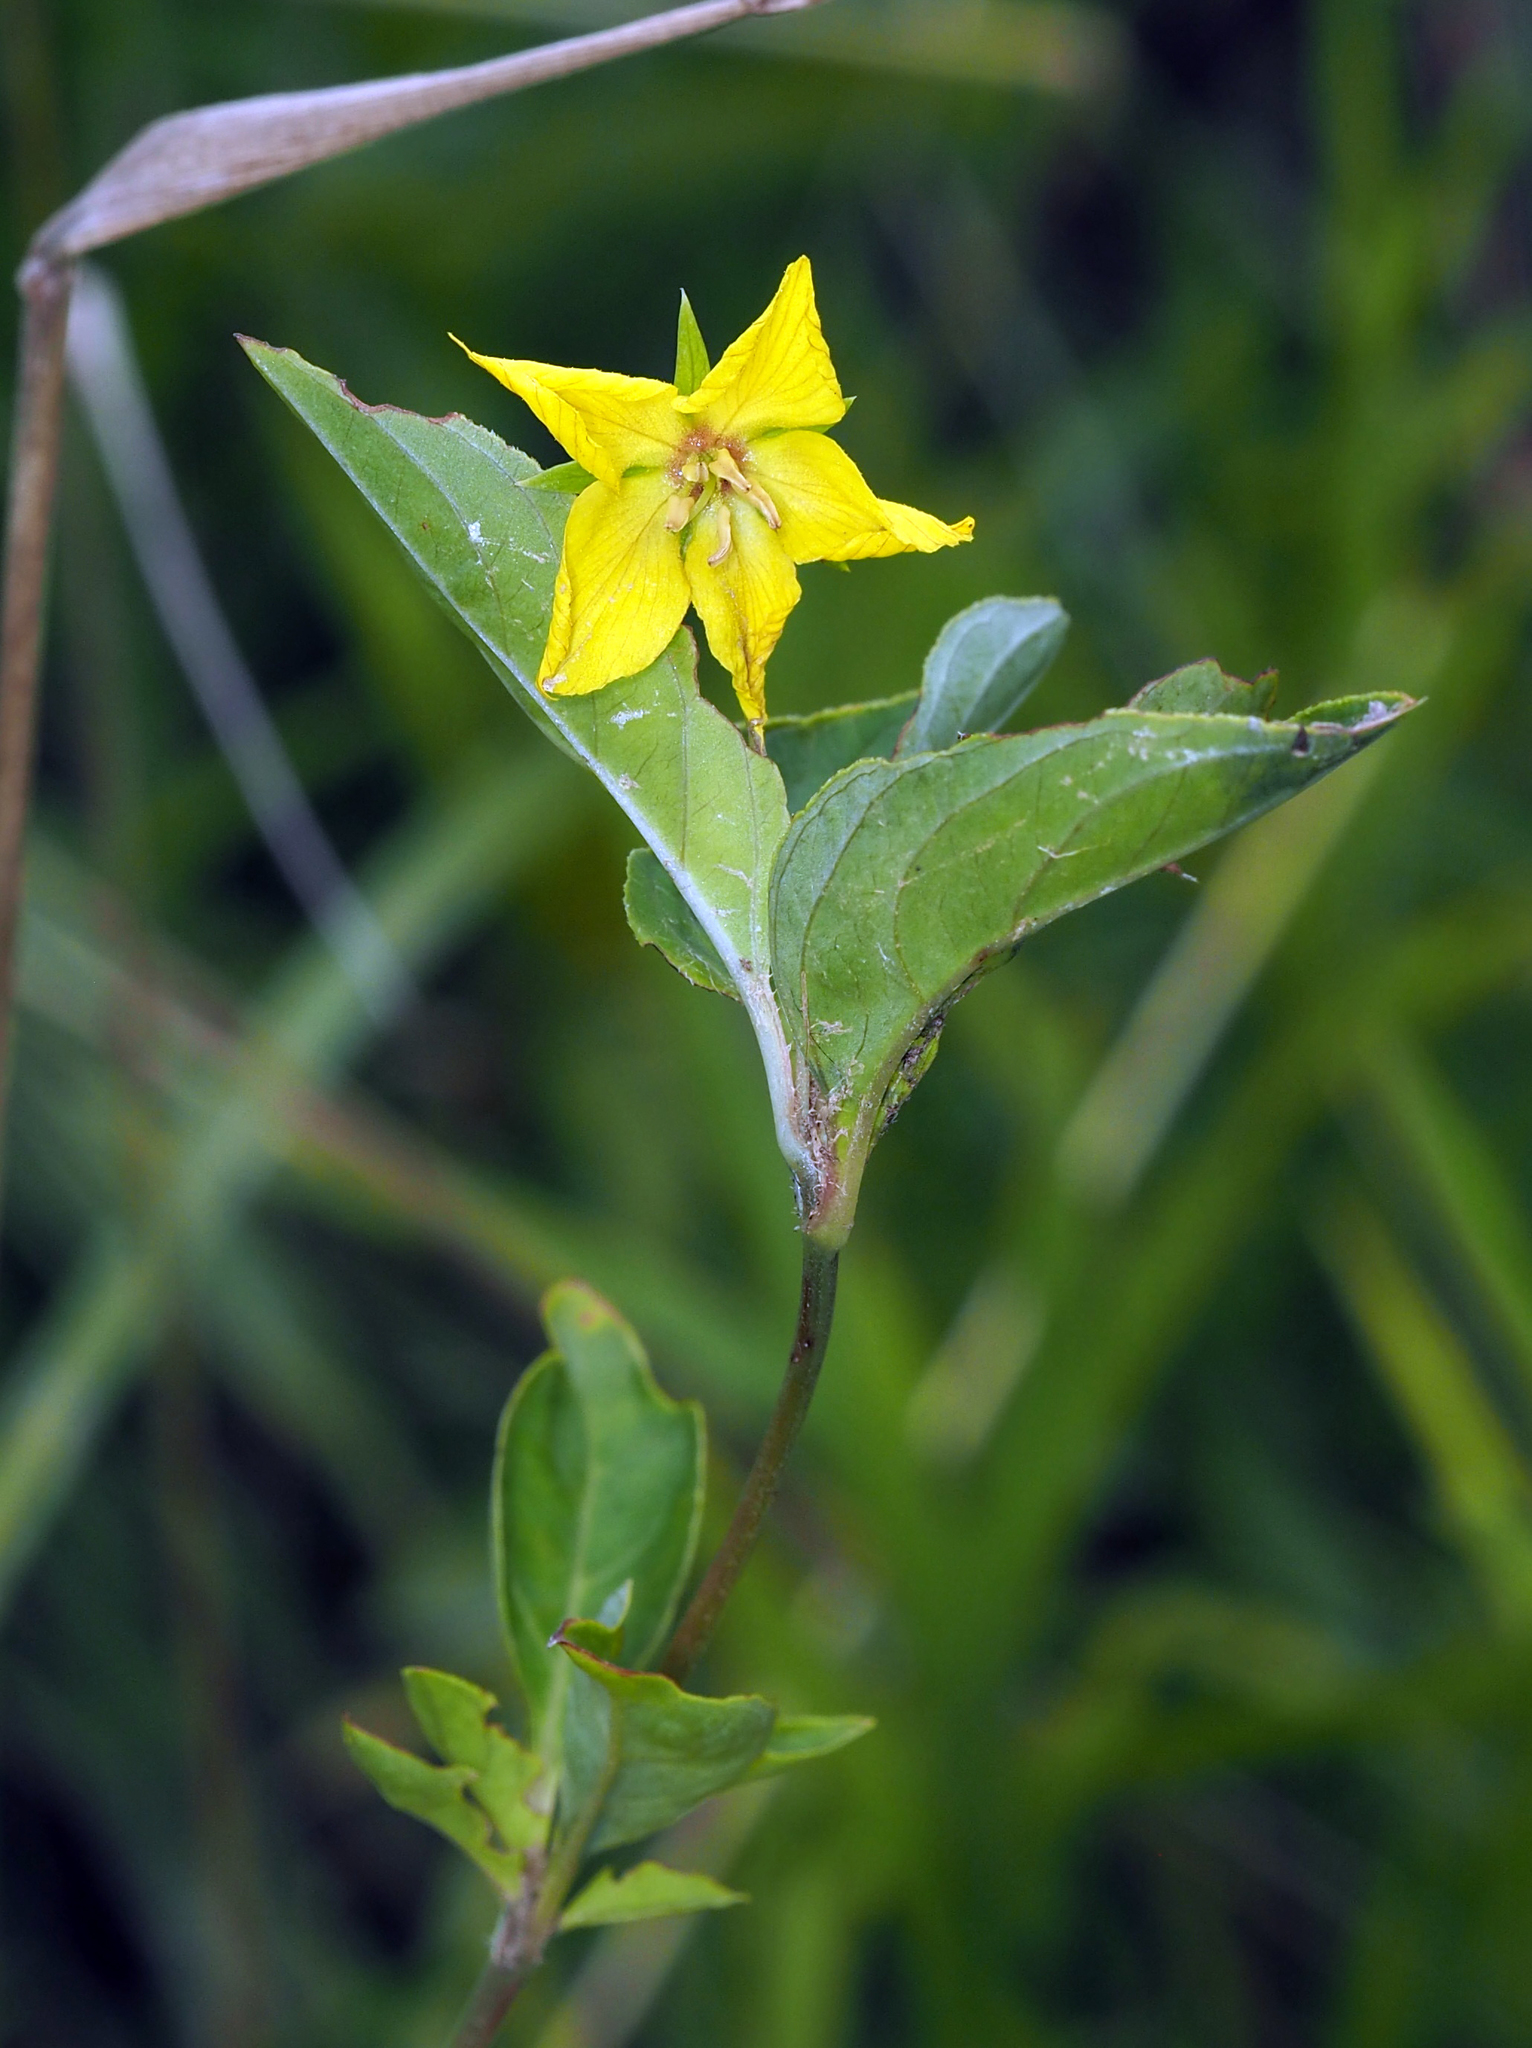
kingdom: Plantae
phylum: Tracheophyta
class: Magnoliopsida
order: Ericales
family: Primulaceae
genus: Lysimachia
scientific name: Lysimachia ciliata
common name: Fringed loosestrife
